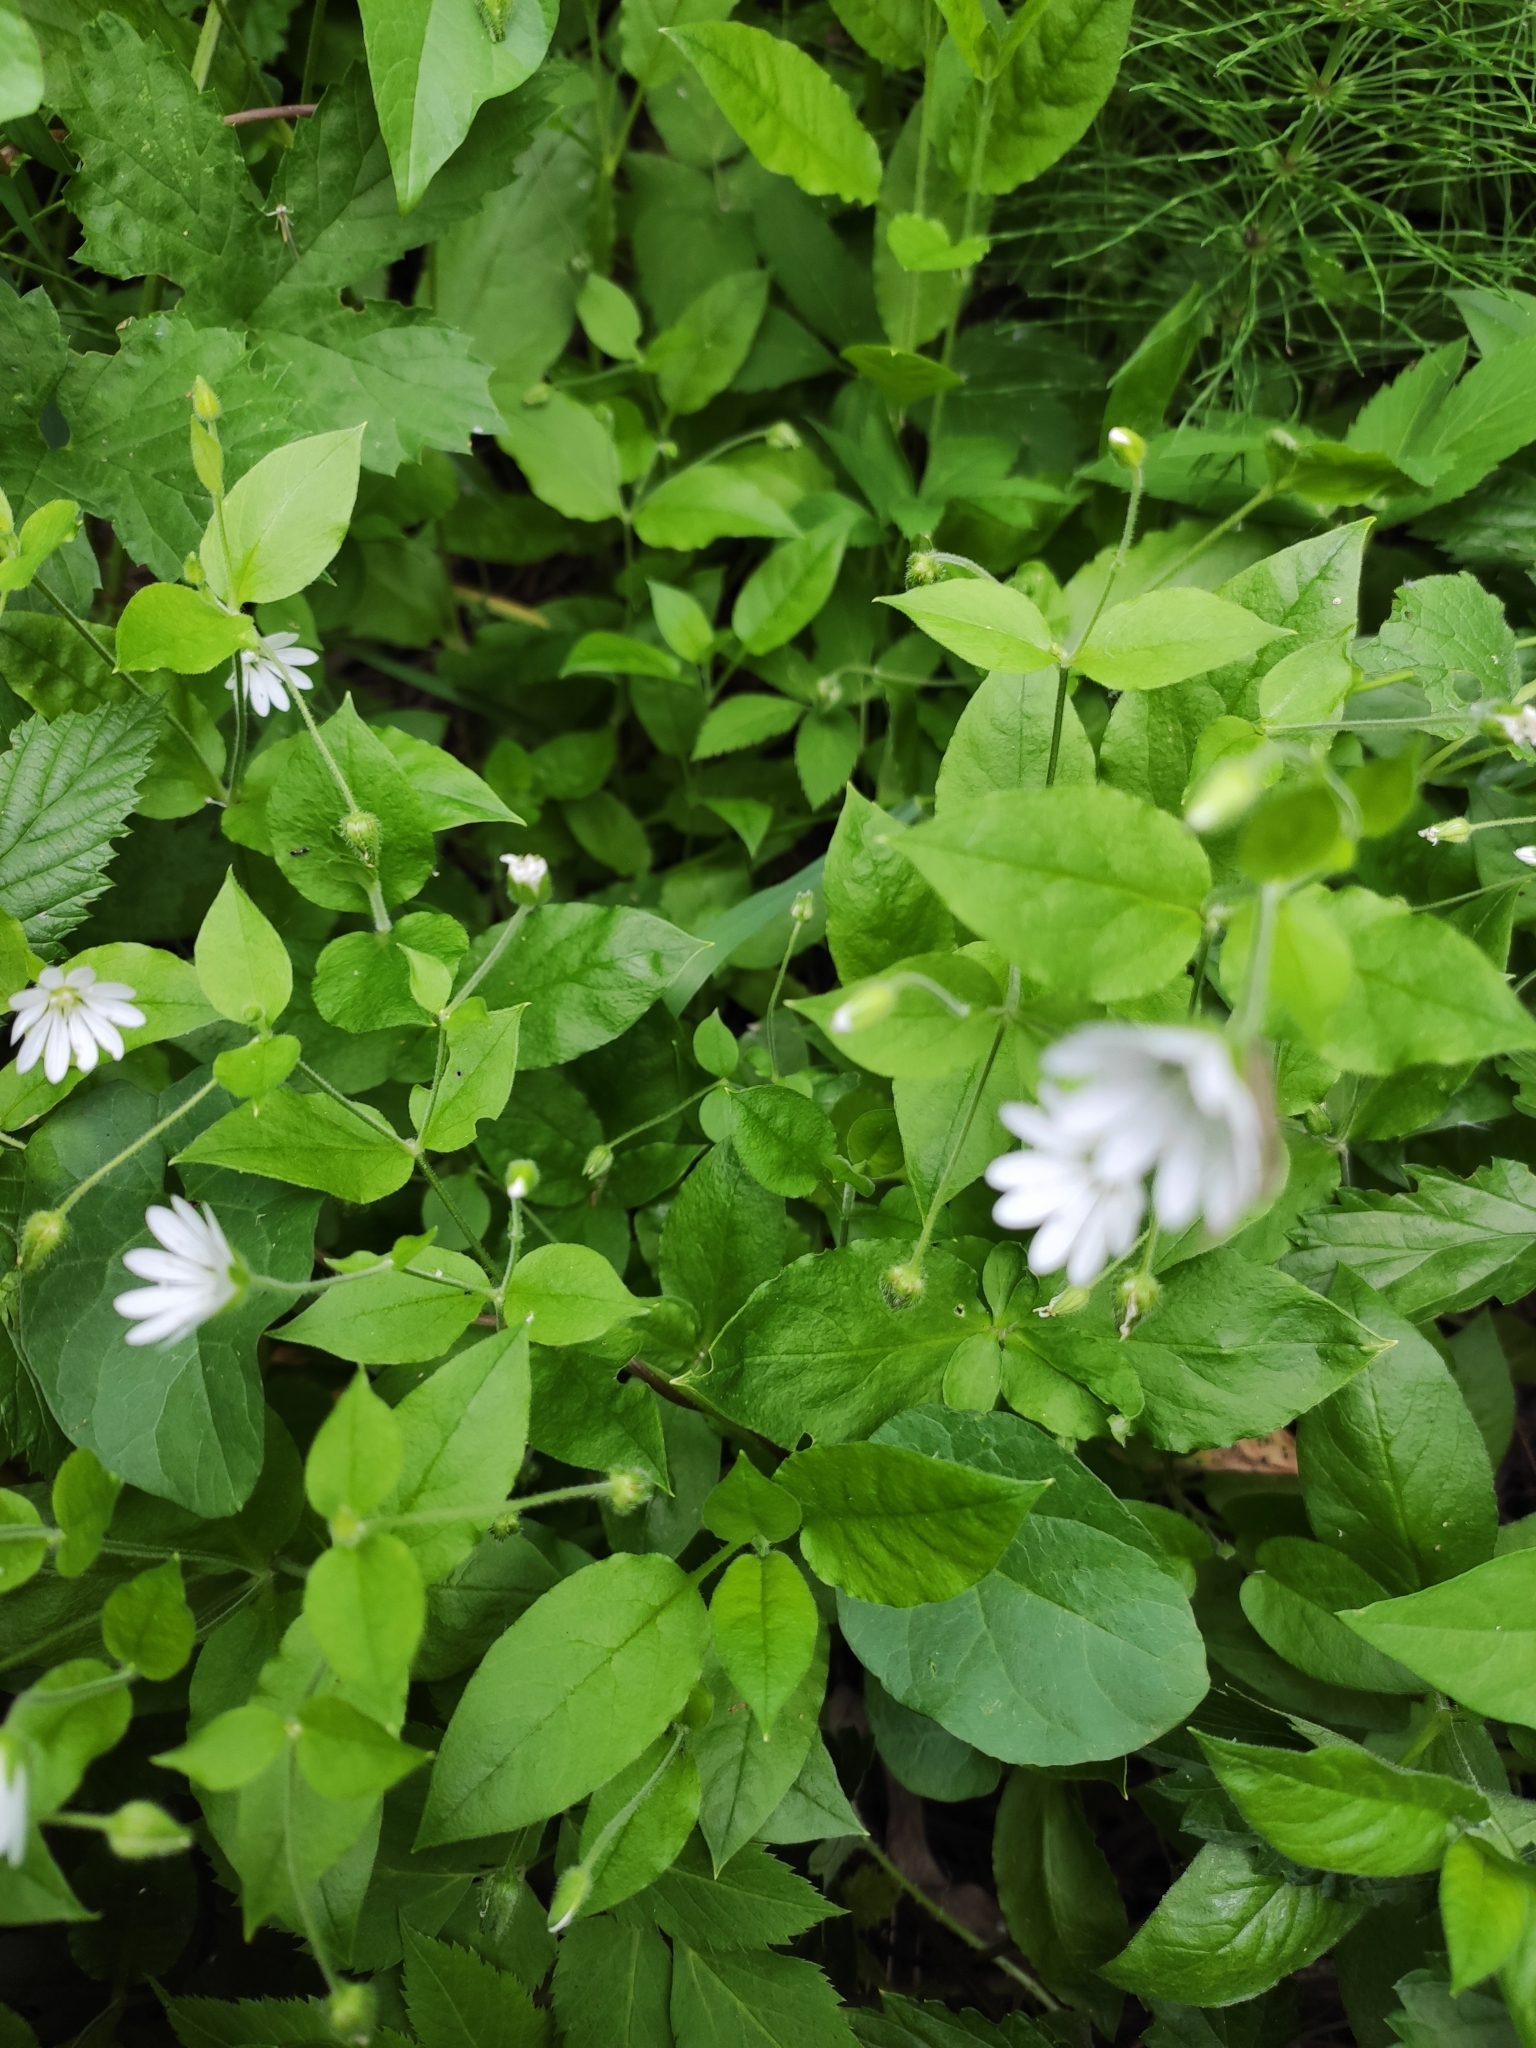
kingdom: Plantae
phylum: Tracheophyta
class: Magnoliopsida
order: Caryophyllales
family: Caryophyllaceae
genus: Stellaria
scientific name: Stellaria bungeana
